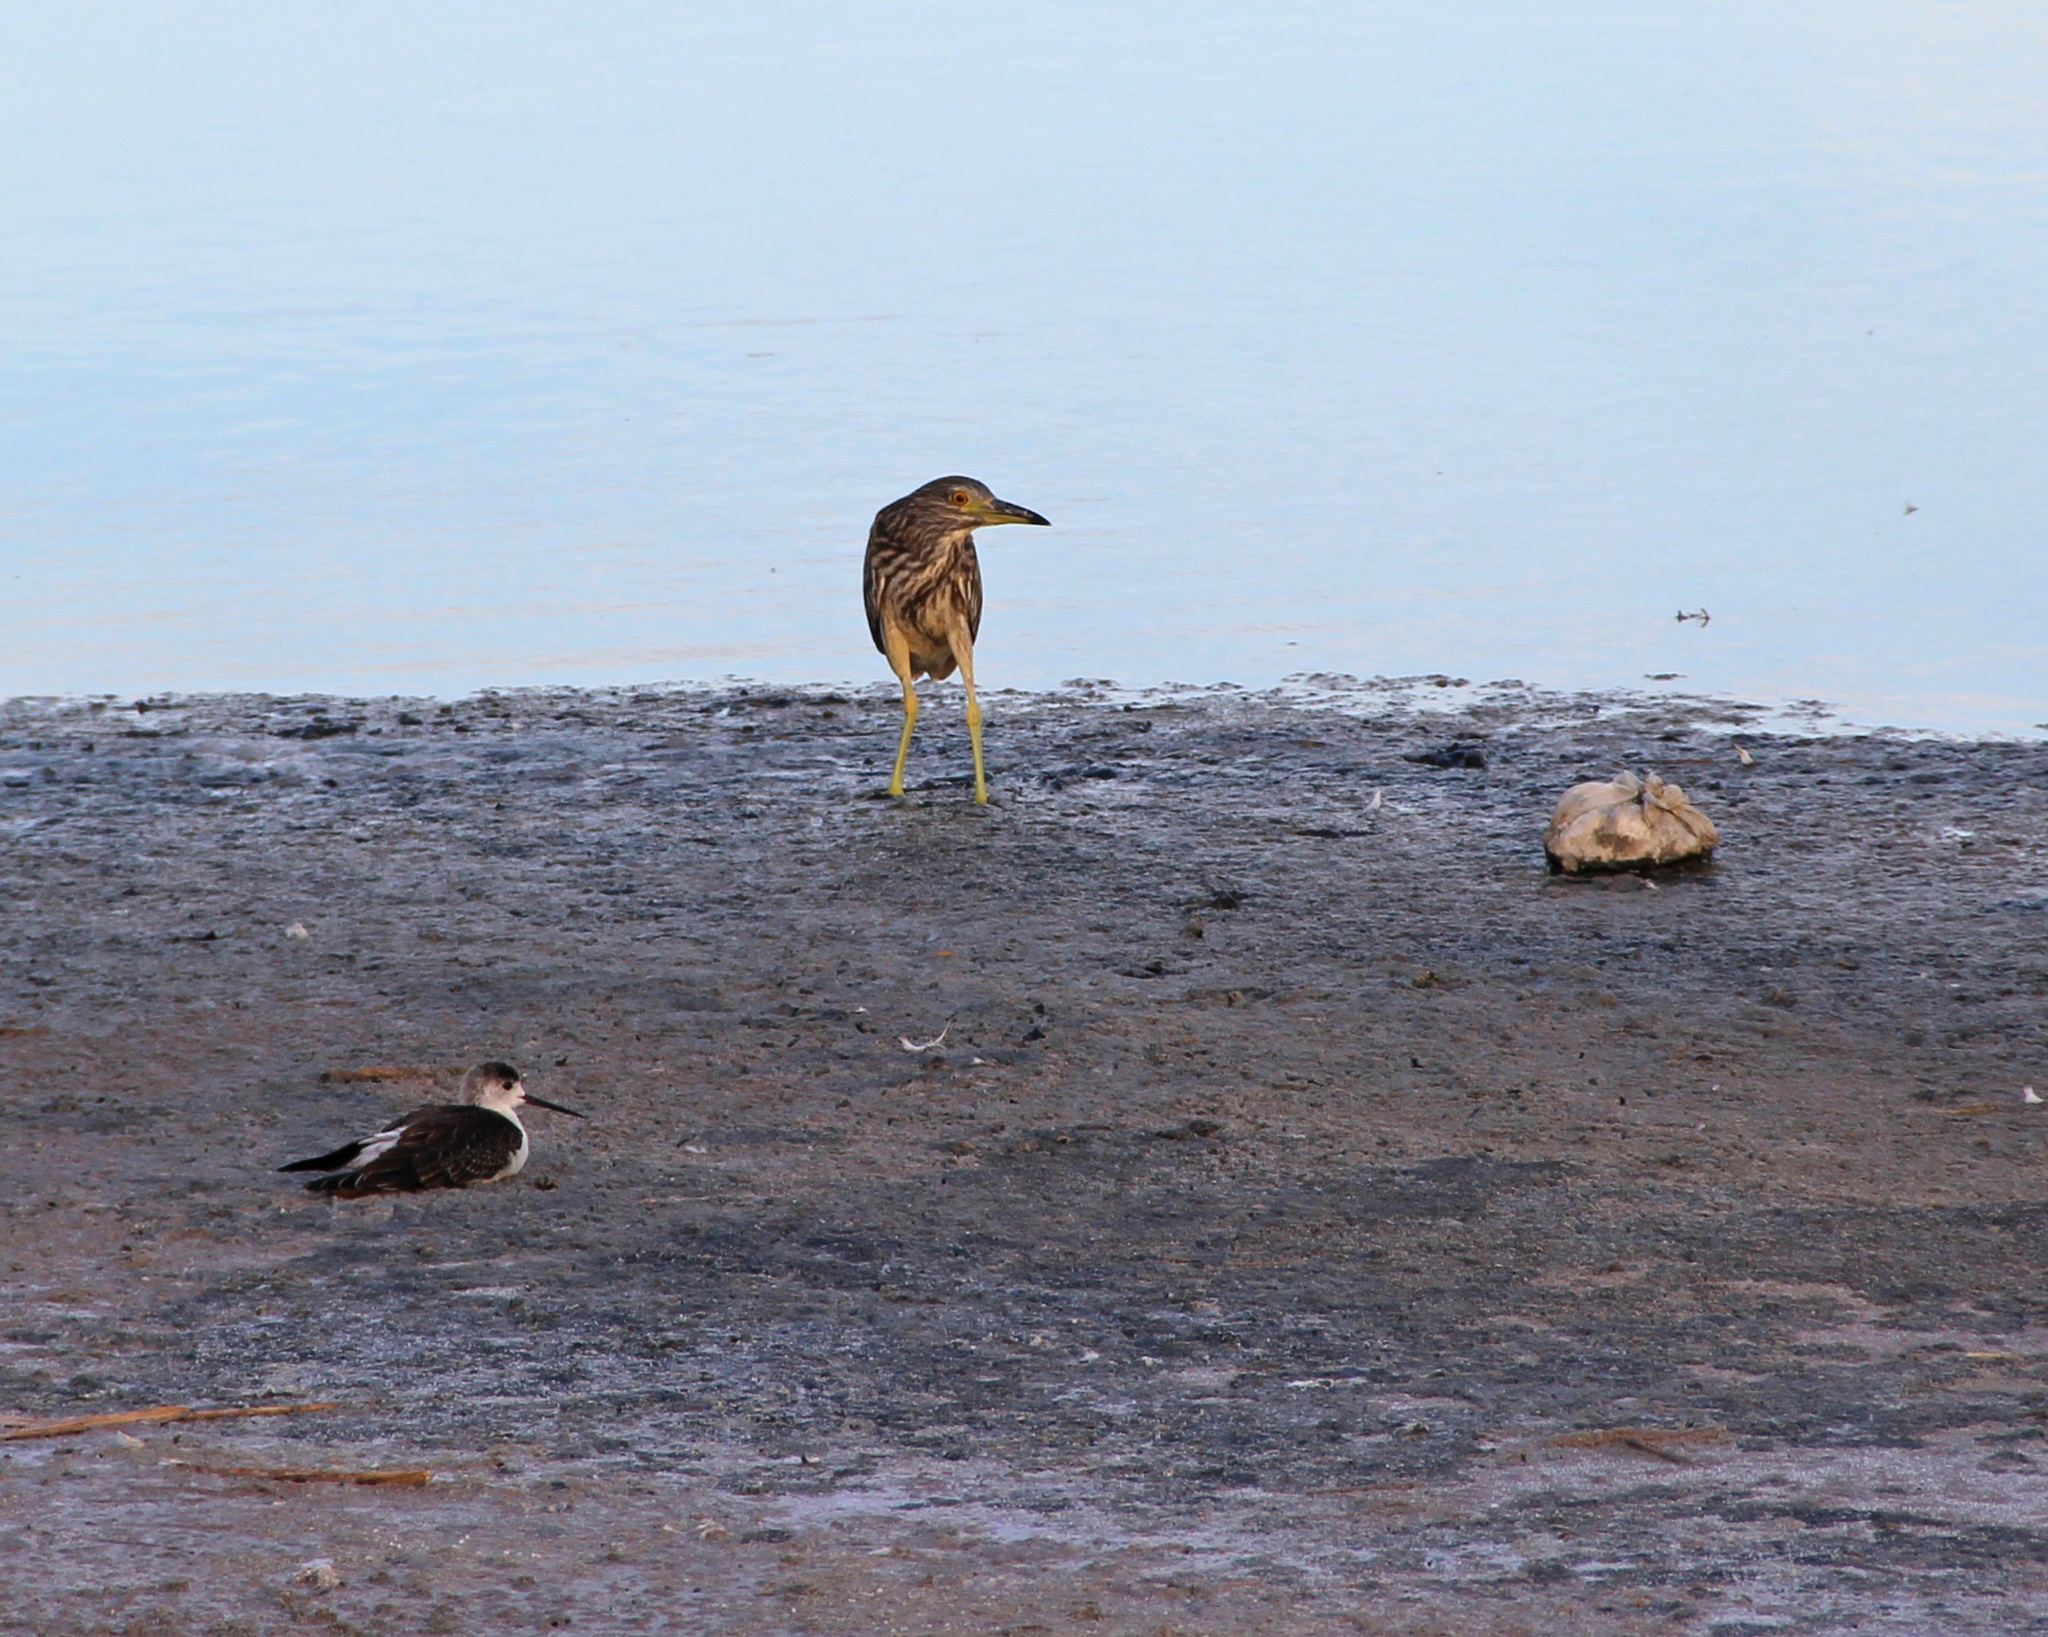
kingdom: Animalia
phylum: Chordata
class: Aves
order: Pelecaniformes
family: Ardeidae
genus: Nycticorax
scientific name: Nycticorax nycticorax
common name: Black-crowned night heron
